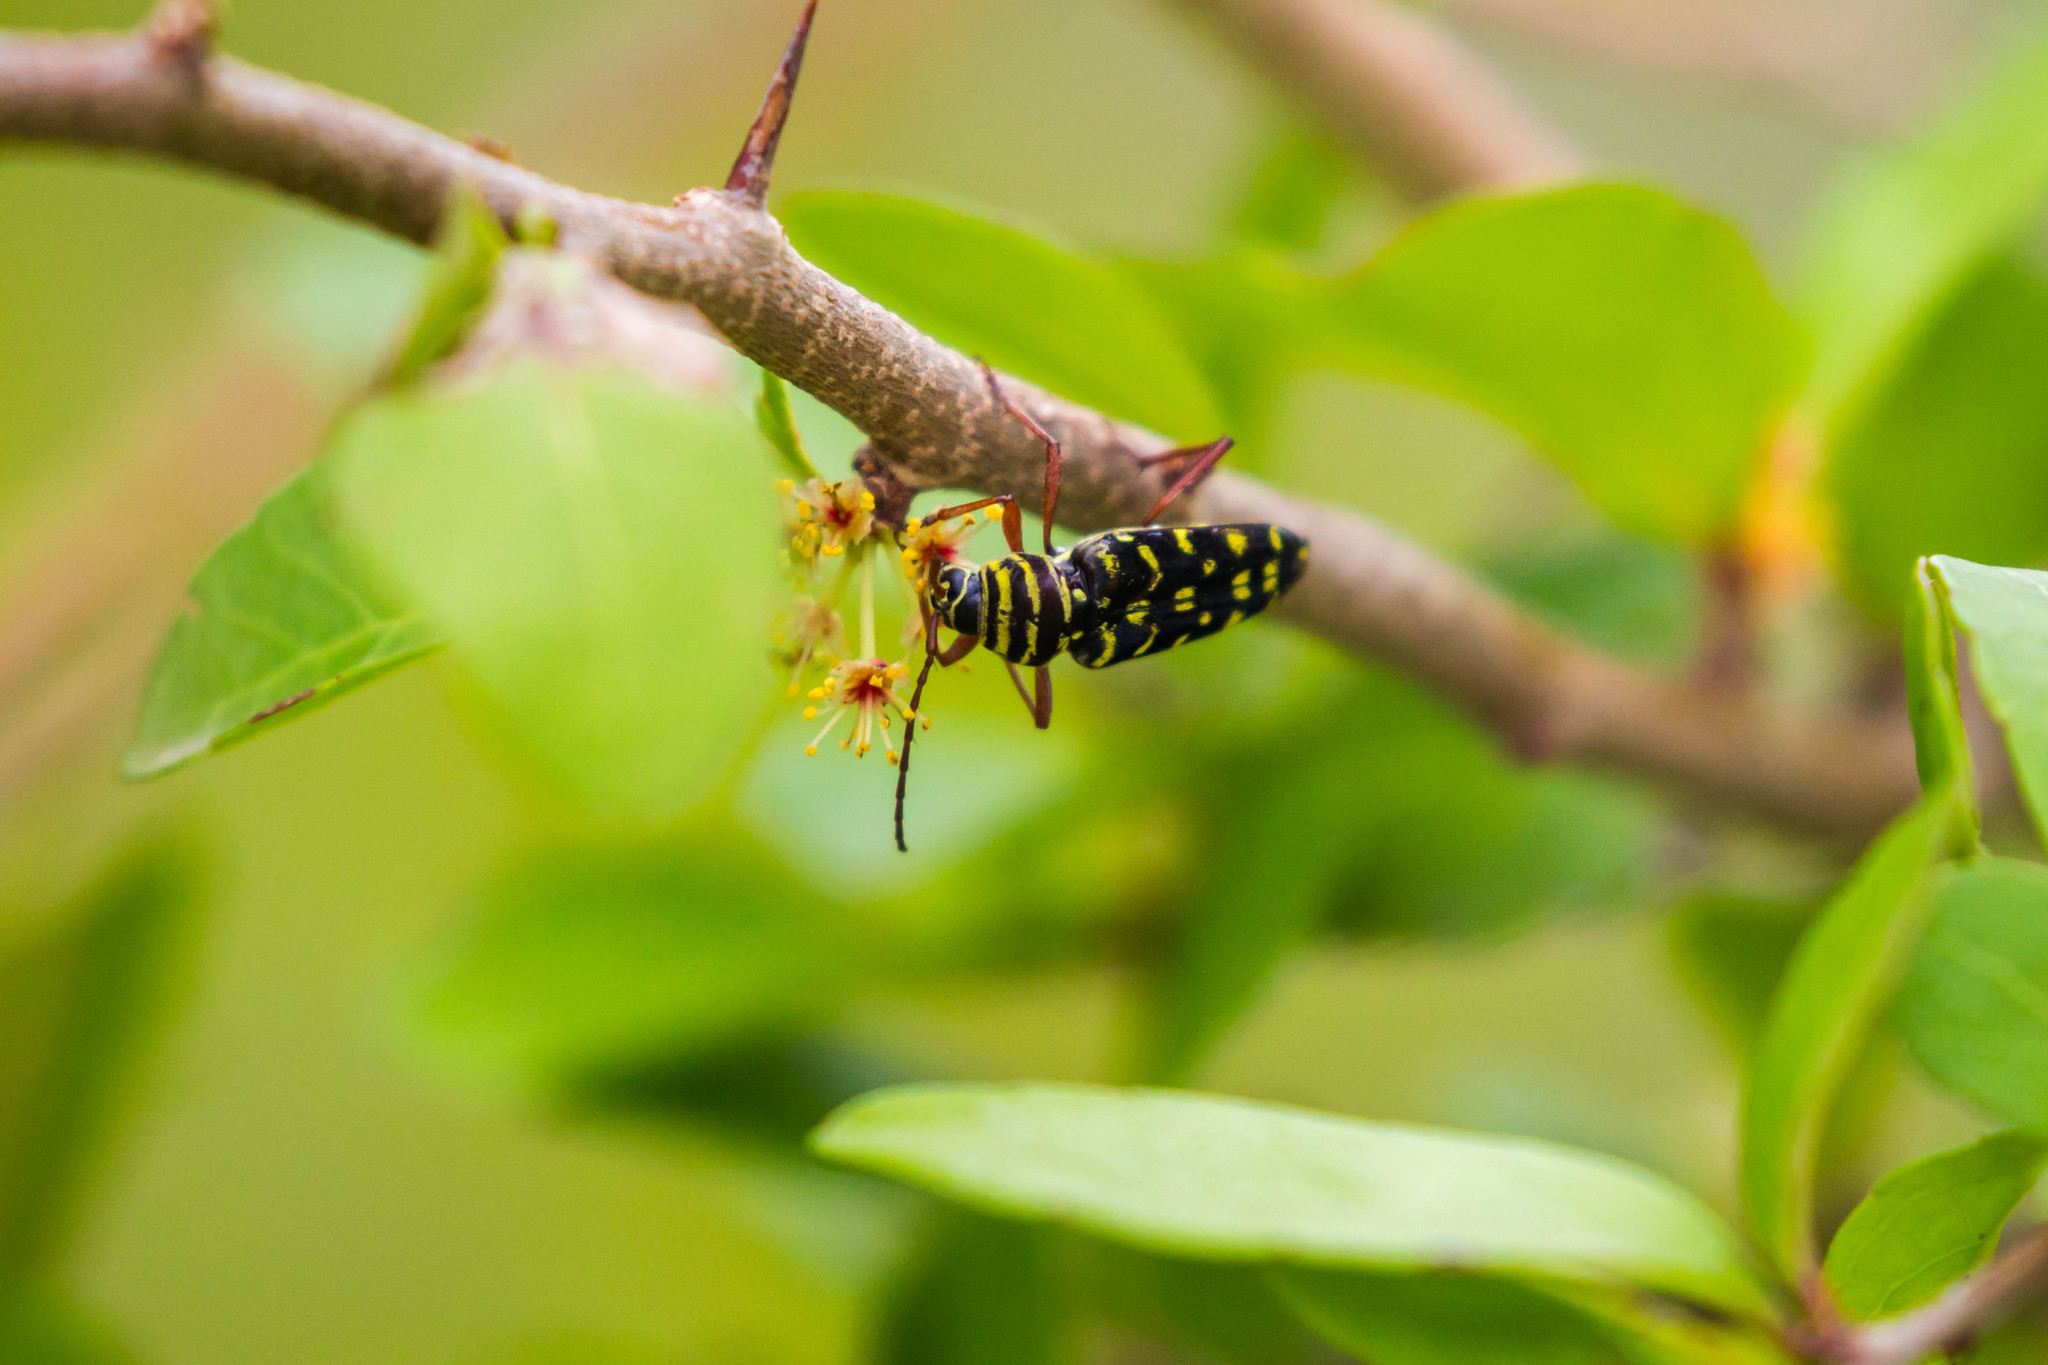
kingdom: Animalia
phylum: Arthropoda
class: Insecta
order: Coleoptera
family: Cerambycidae
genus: Placosternus
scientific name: Placosternus difficilis
